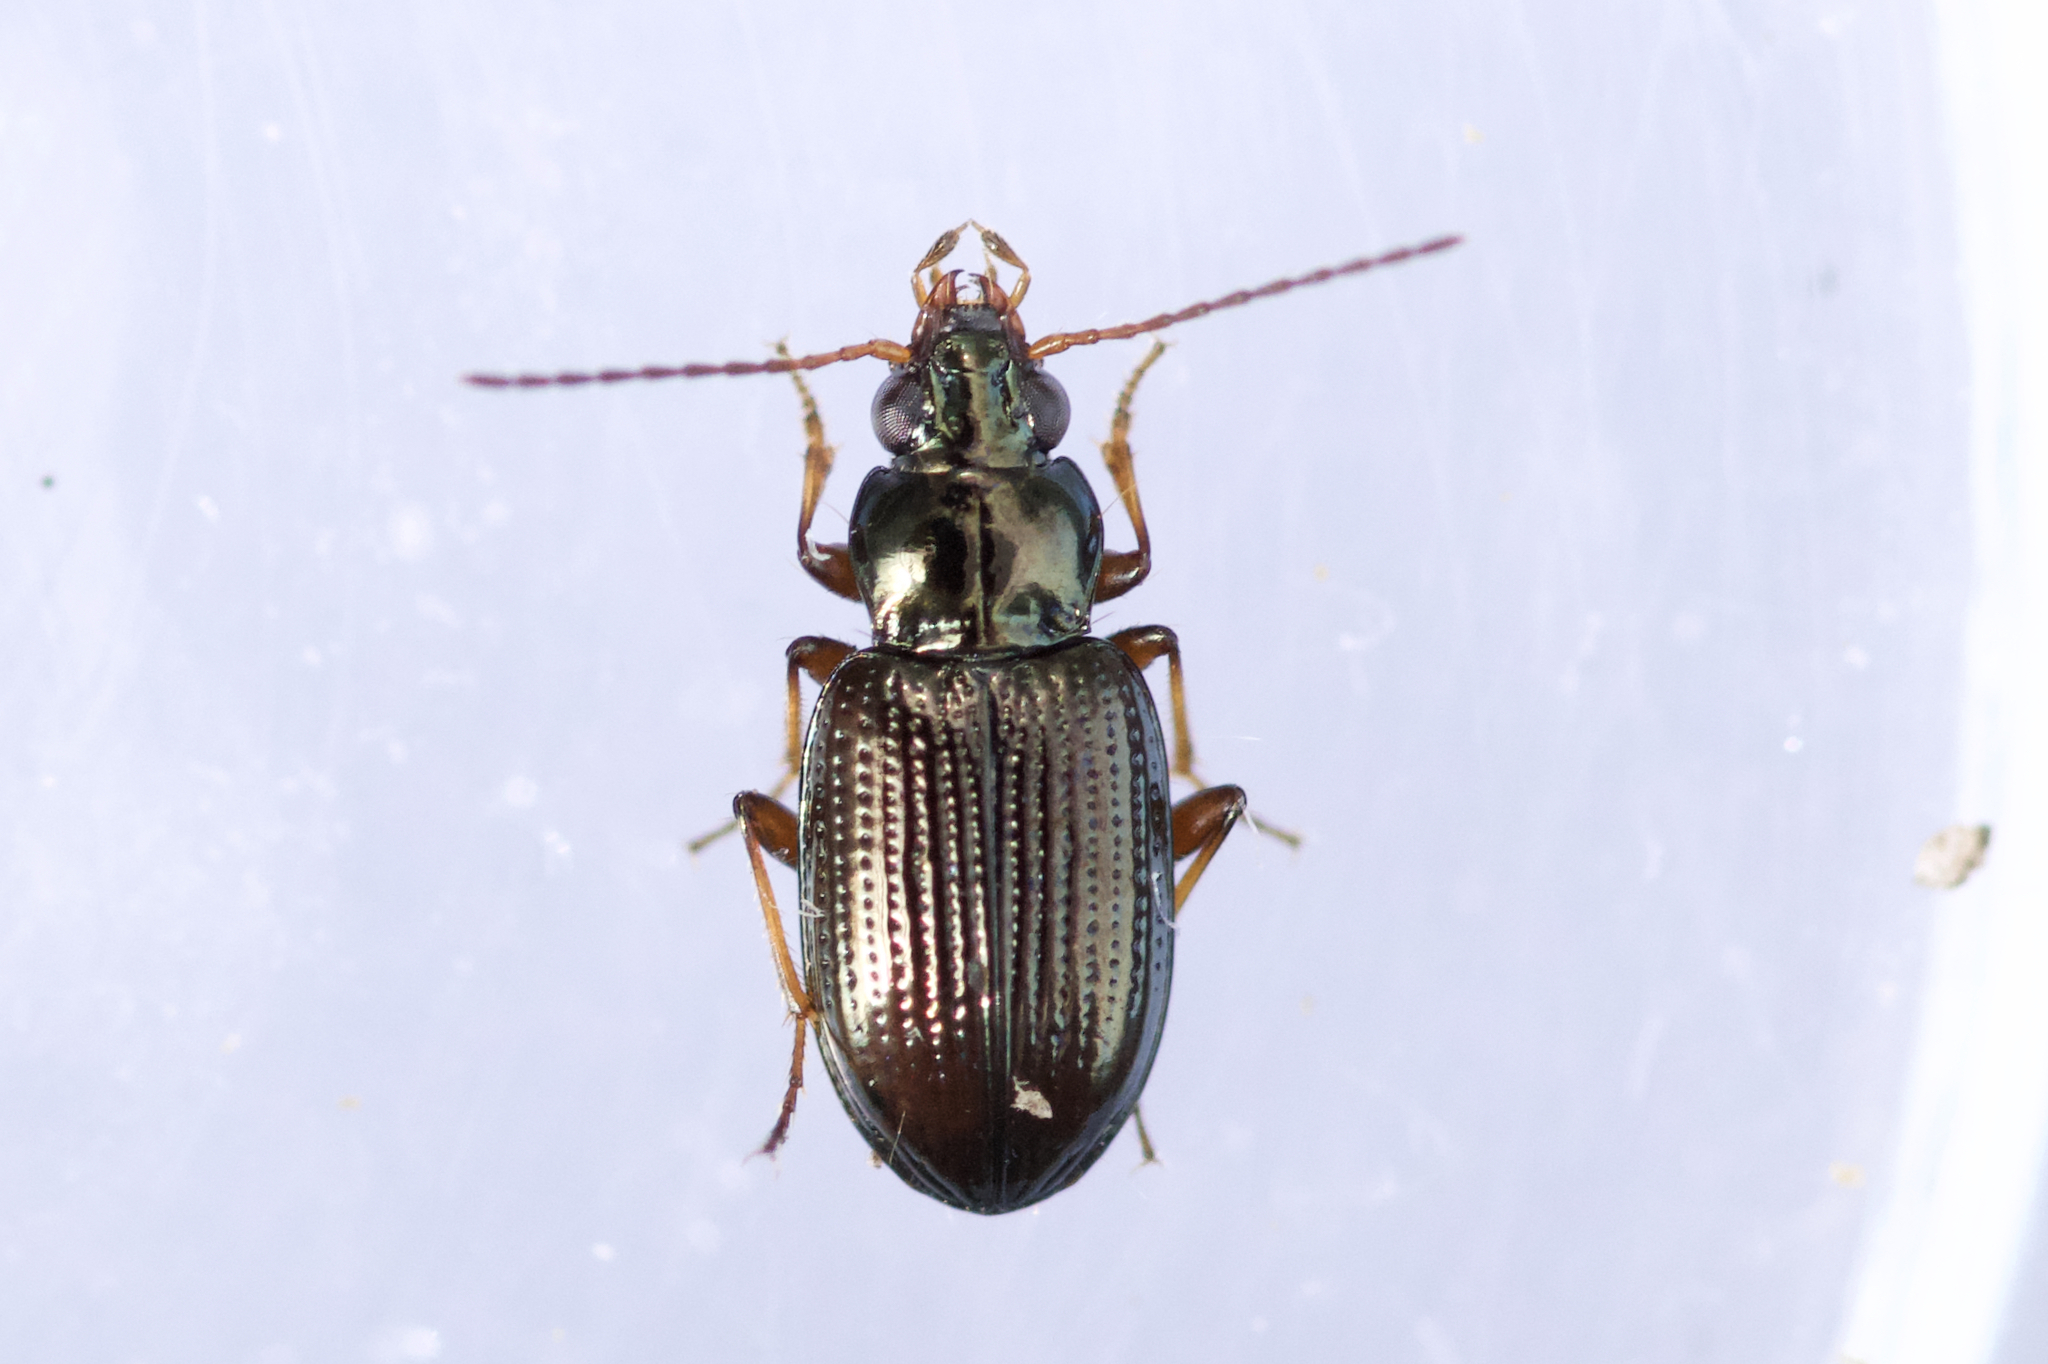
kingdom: Animalia
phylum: Arthropoda
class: Insecta
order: Coleoptera
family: Carabidae
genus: Bembidion
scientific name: Bembidion nigrum
